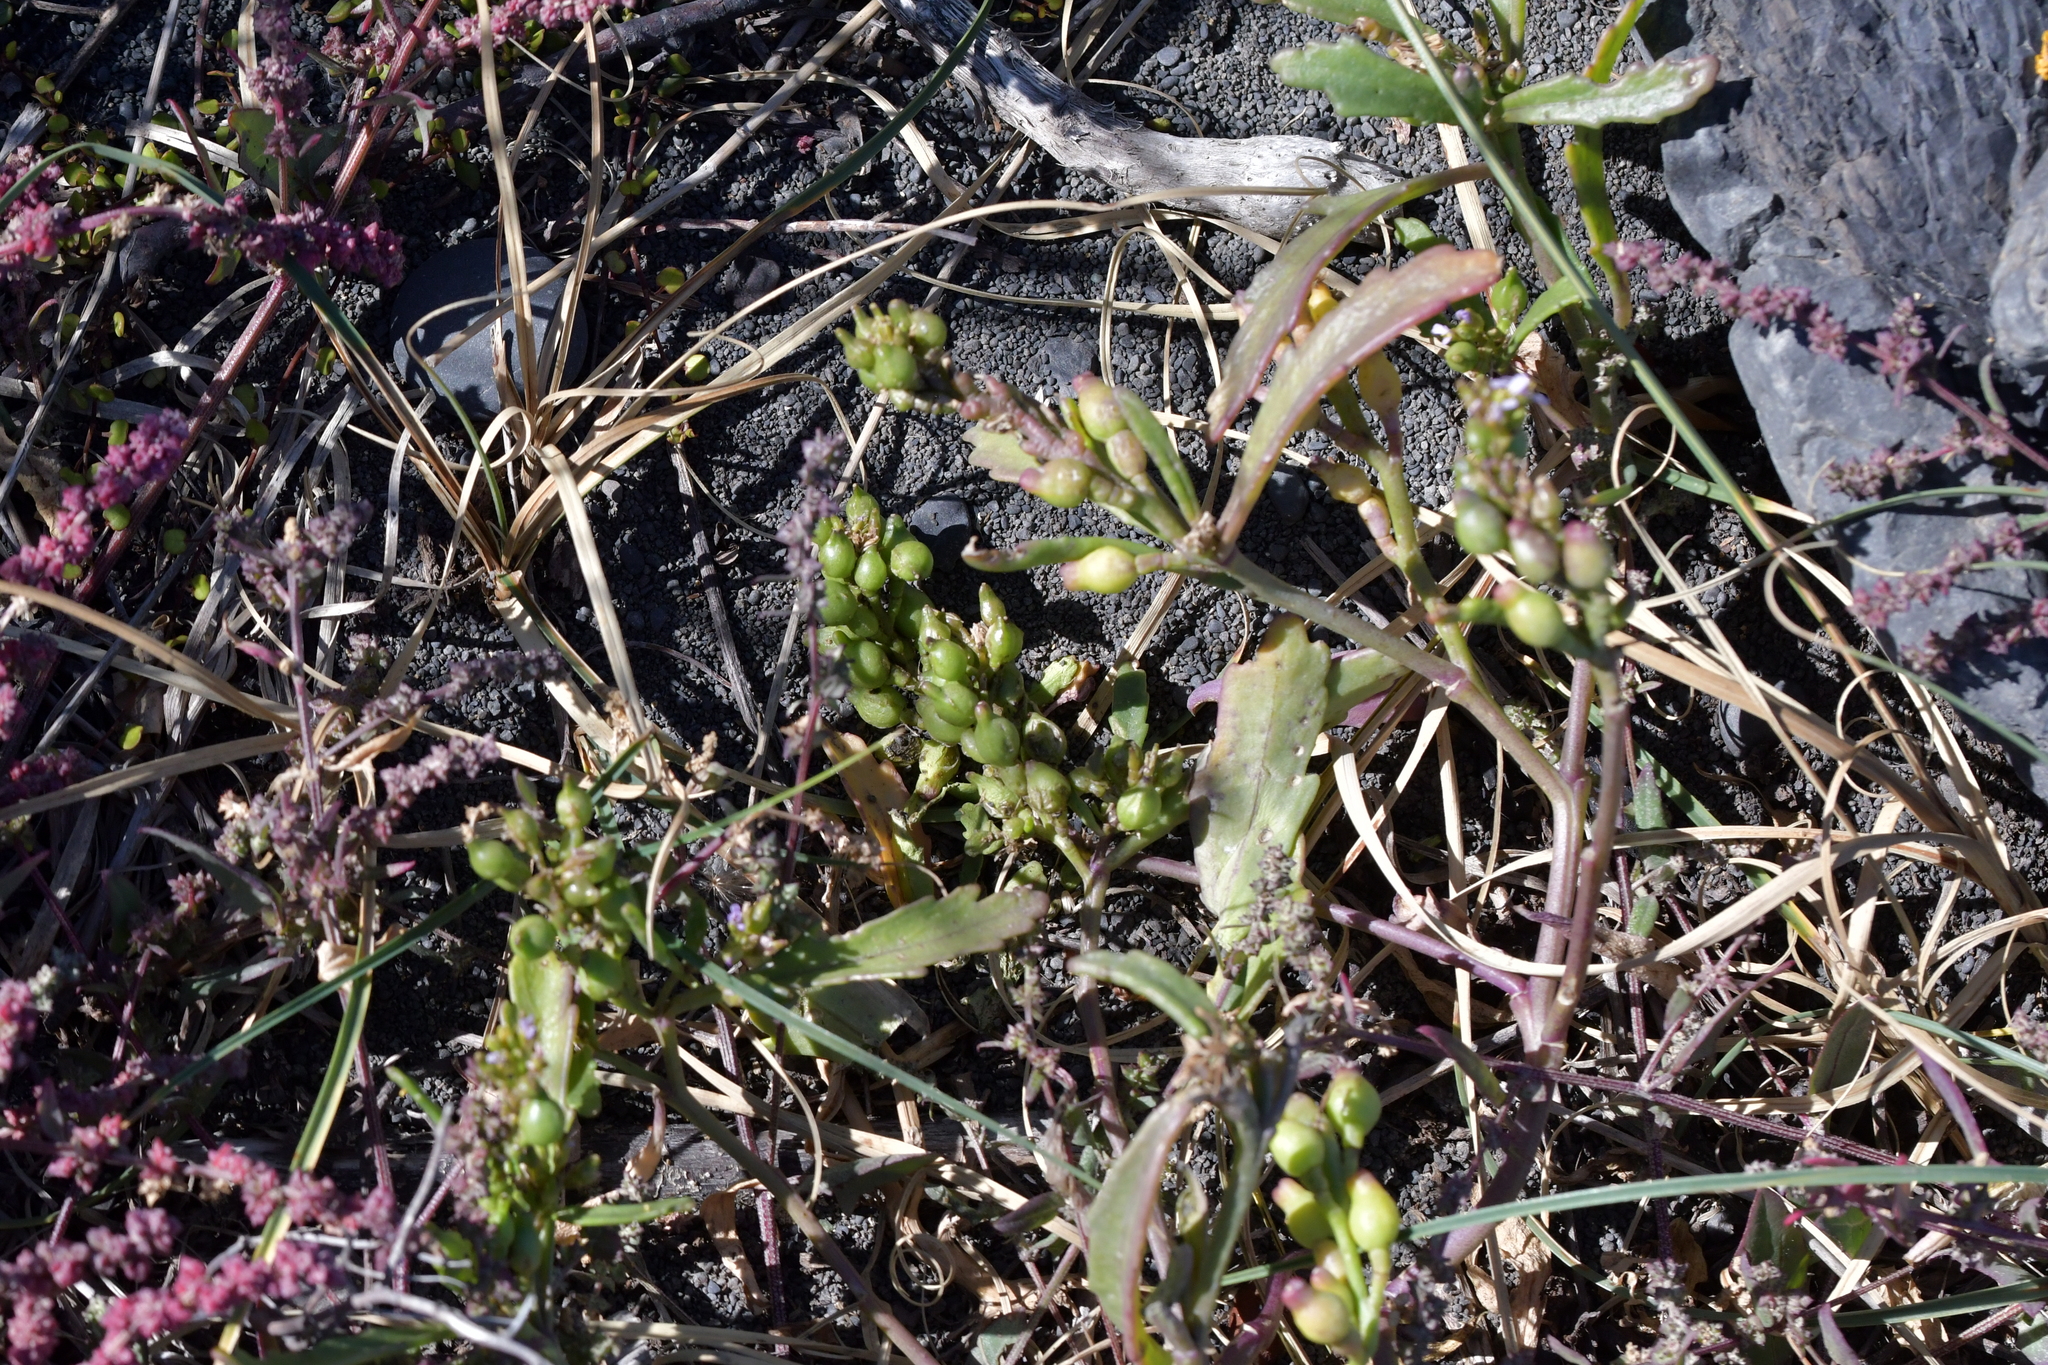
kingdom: Plantae
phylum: Tracheophyta
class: Magnoliopsida
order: Brassicales
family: Brassicaceae
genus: Cakile
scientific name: Cakile edentula
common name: American sea rocket
